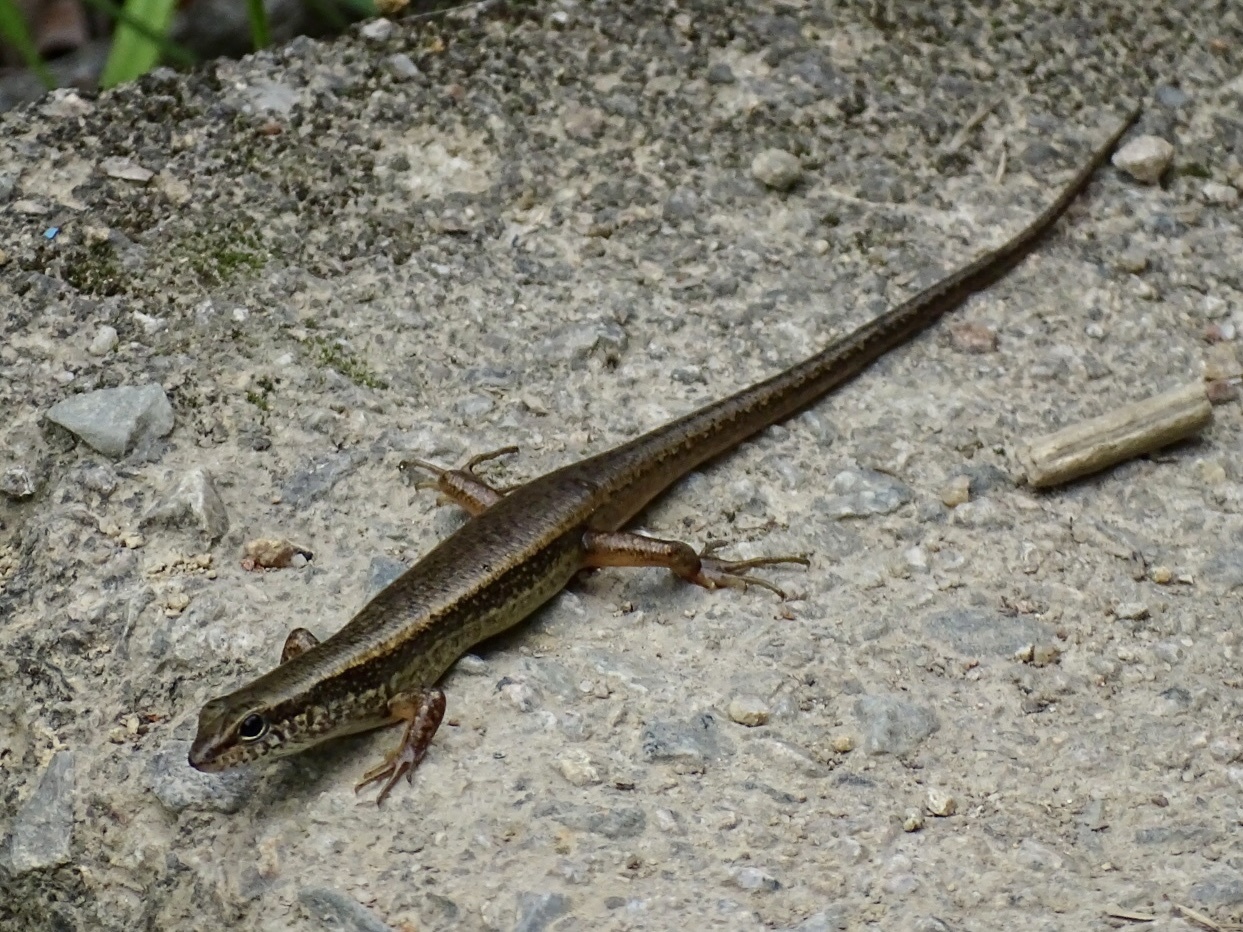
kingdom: Animalia
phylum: Chordata
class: Squamata
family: Scincidae
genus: Sphenomorphus
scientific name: Sphenomorphus indicus
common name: Himalayan forest skink
